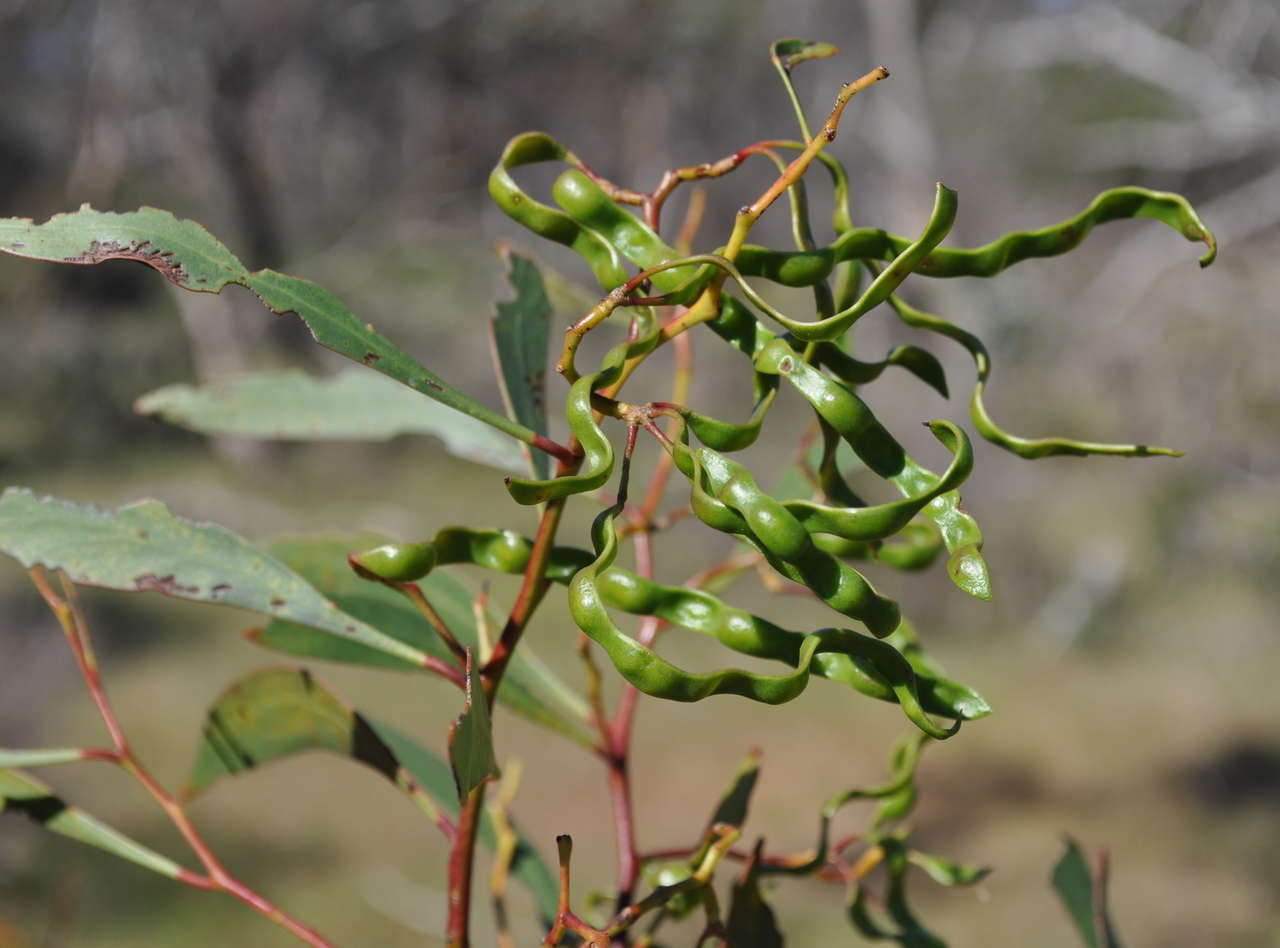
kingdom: Plantae
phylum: Tracheophyta
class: Magnoliopsida
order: Fabales
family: Fabaceae
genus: Acacia
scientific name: Acacia pycnantha
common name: Golden wattle
